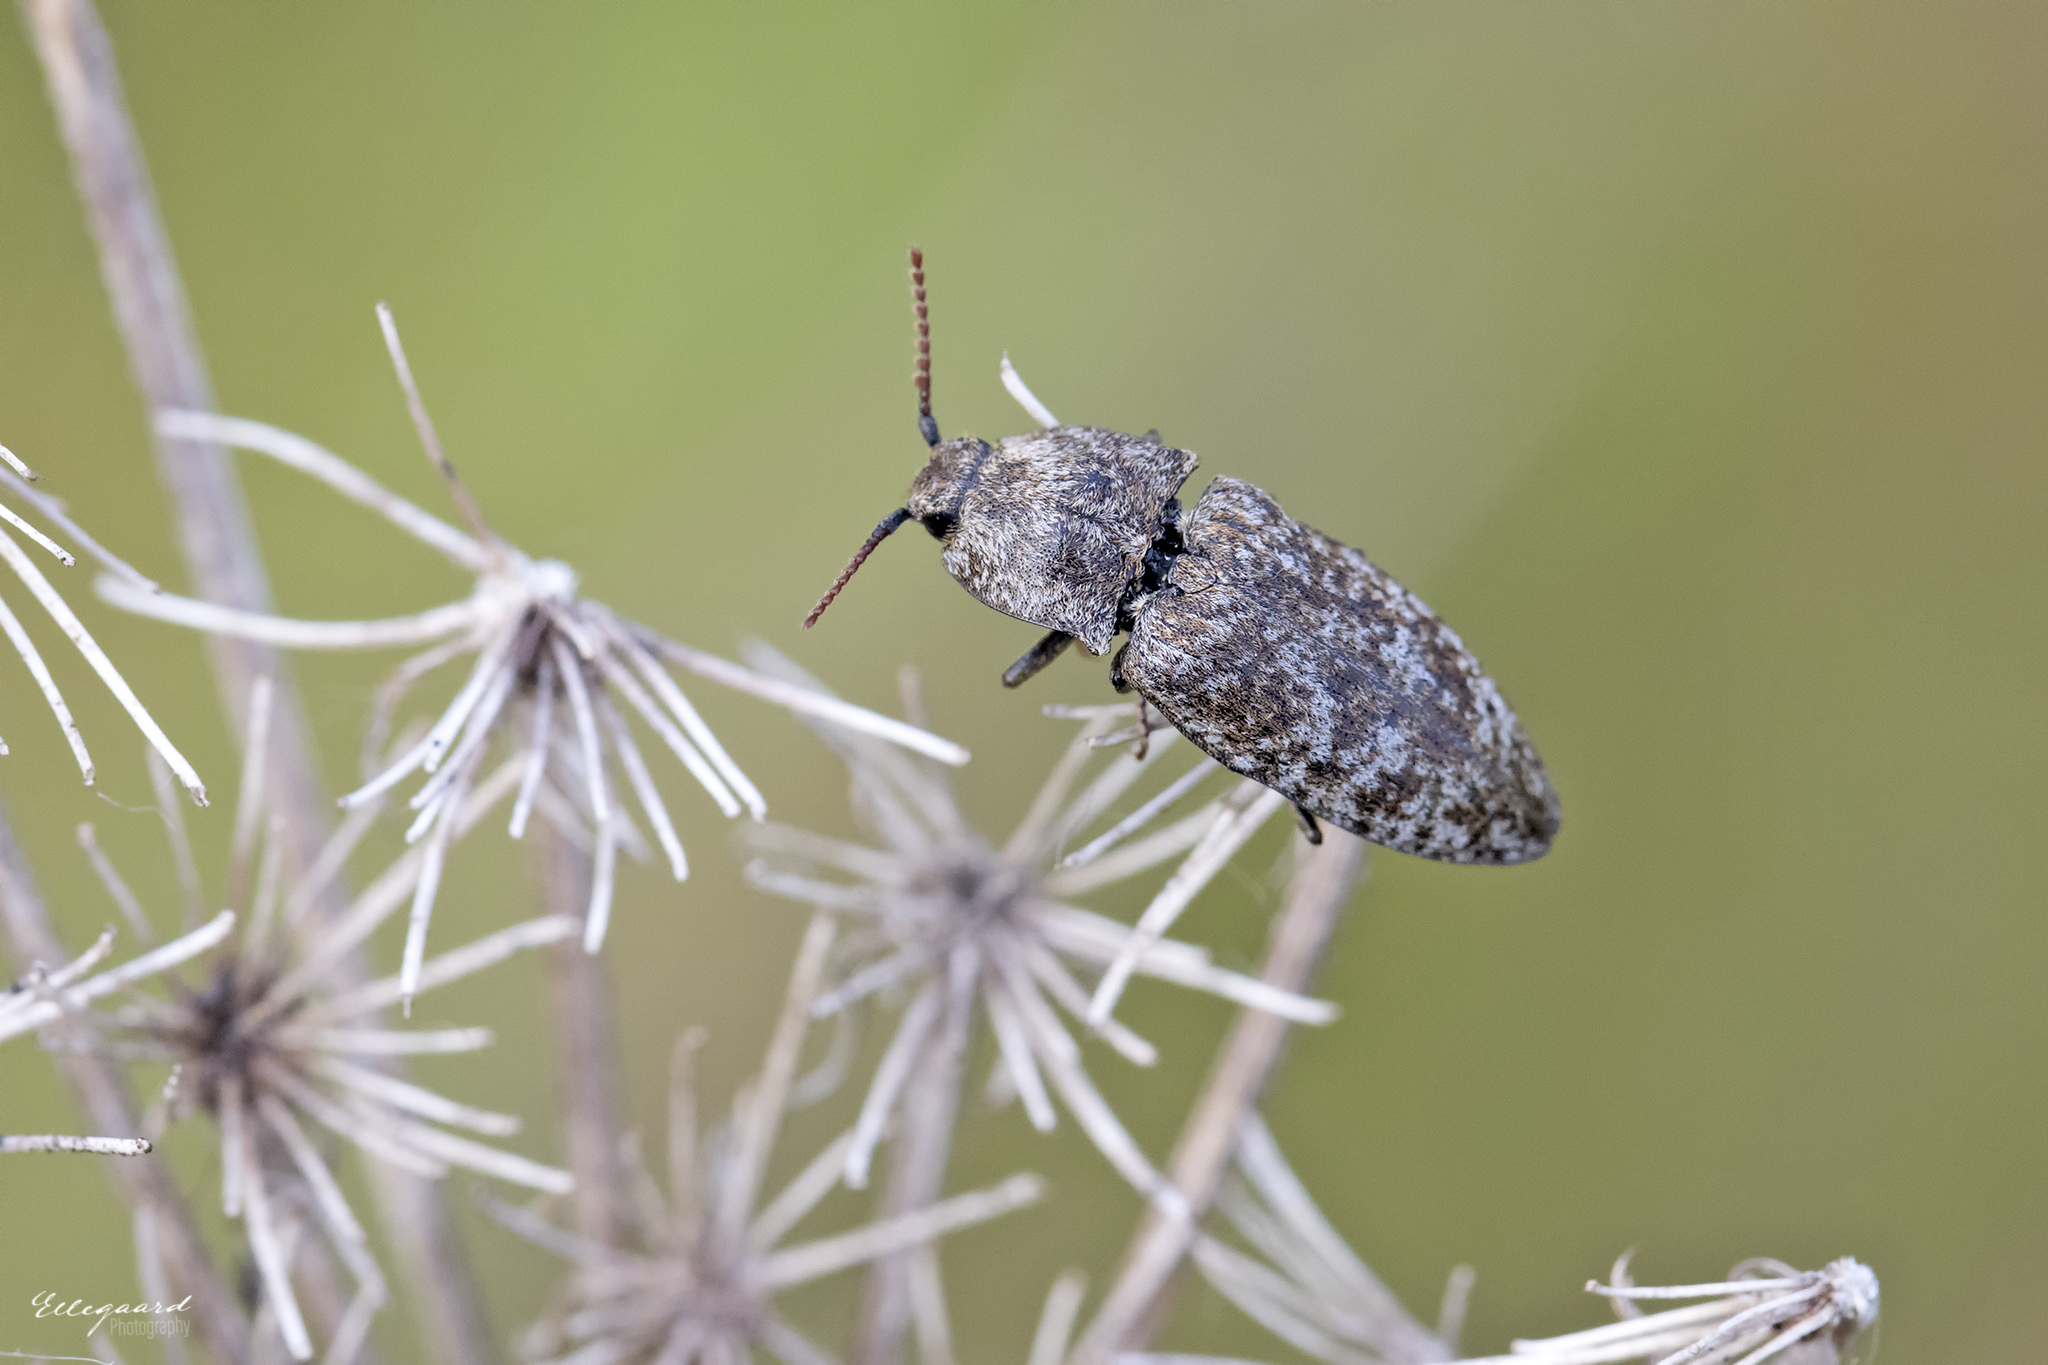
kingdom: Animalia
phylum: Arthropoda
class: Insecta
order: Coleoptera
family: Elateridae
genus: Agrypnus
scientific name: Agrypnus murinus
